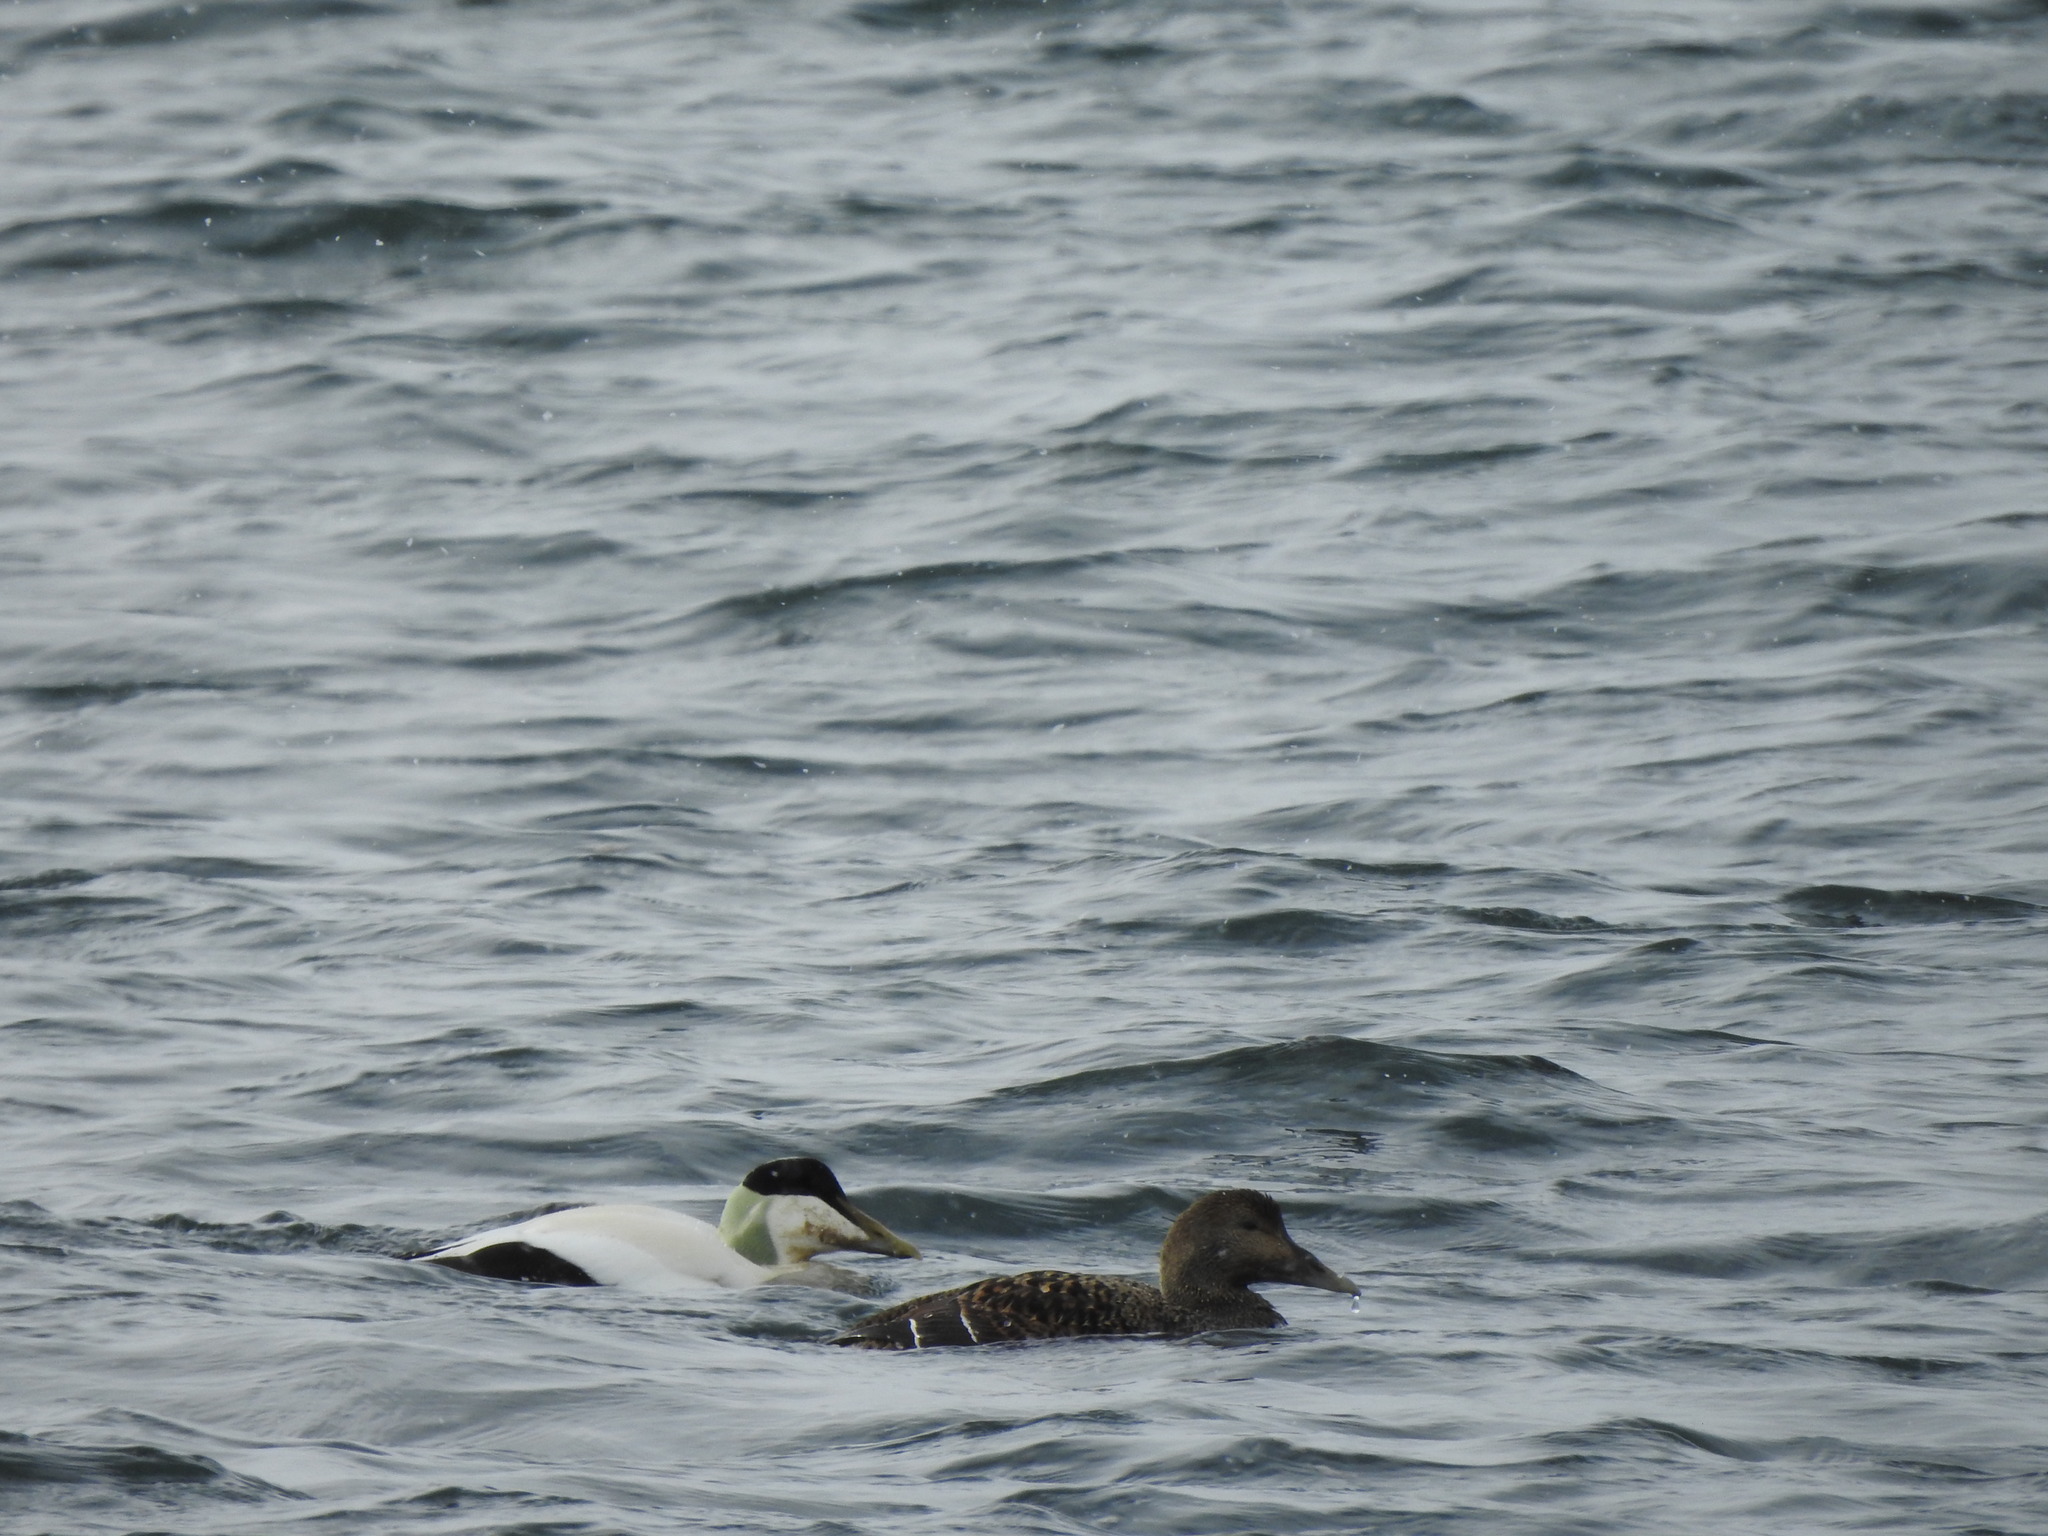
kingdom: Animalia
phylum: Chordata
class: Aves
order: Anseriformes
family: Anatidae
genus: Somateria
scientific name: Somateria mollissima
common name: Common eider
